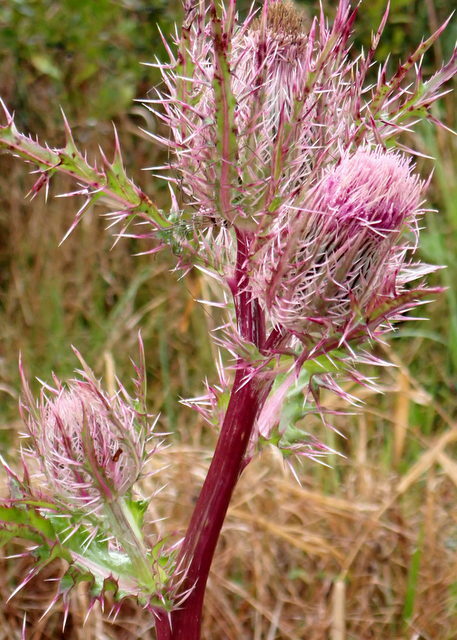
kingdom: Plantae
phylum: Tracheophyta
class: Magnoliopsida
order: Asterales
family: Asteraceae
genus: Cirsium
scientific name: Cirsium horridulum
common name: Bristly thistle
